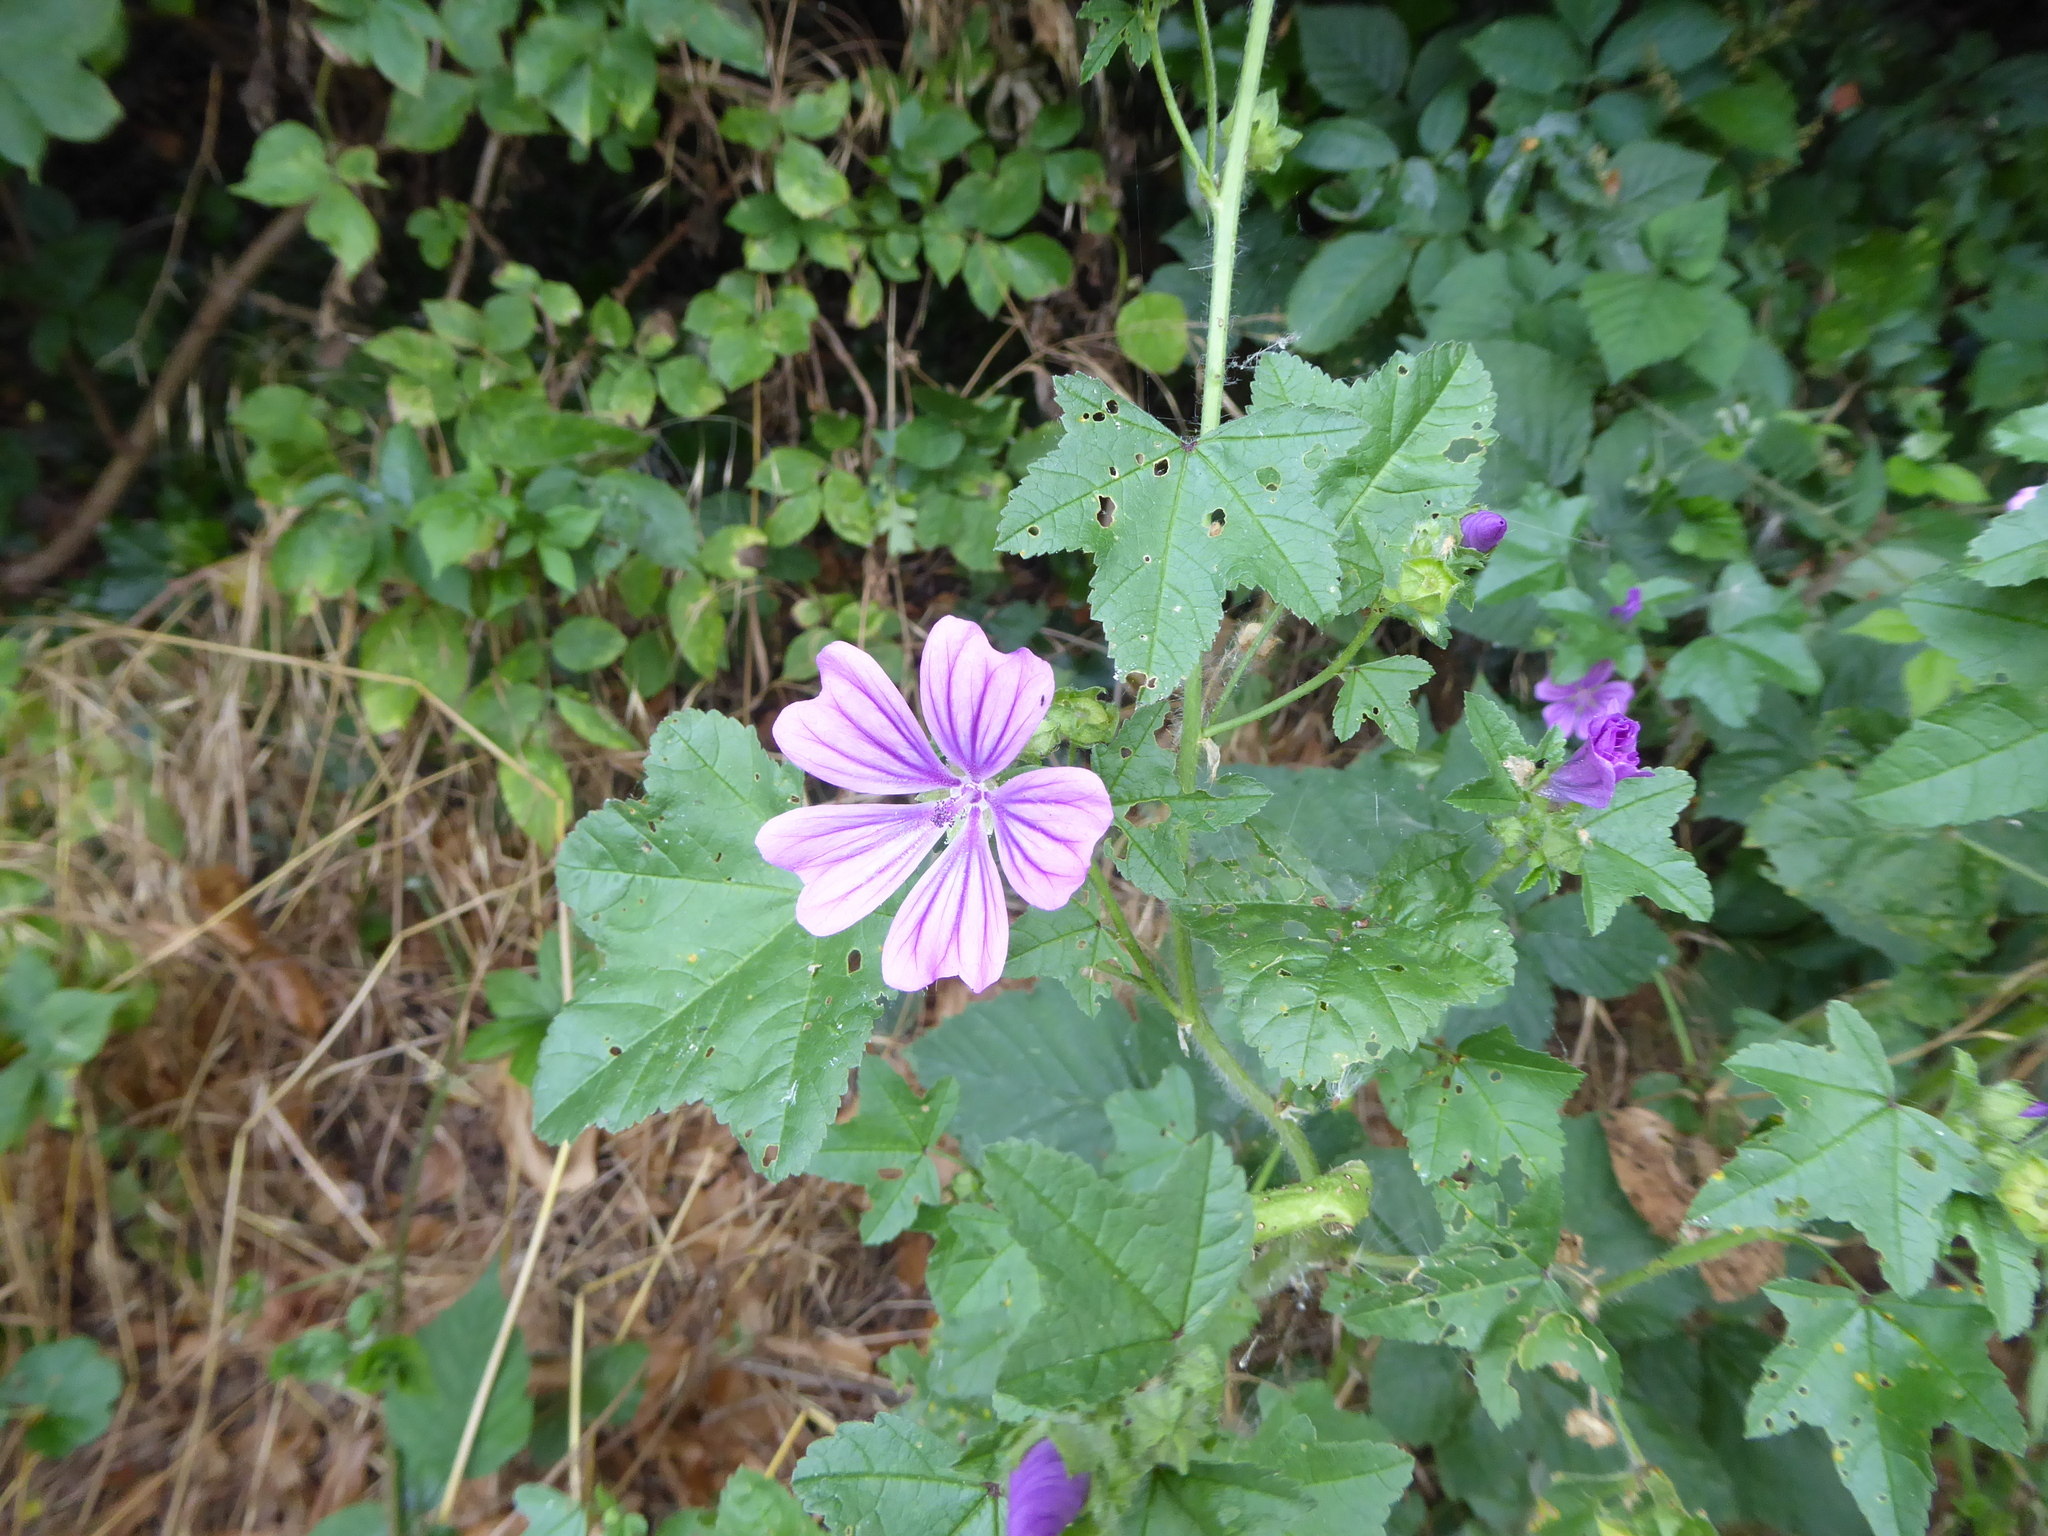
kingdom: Plantae
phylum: Tracheophyta
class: Magnoliopsida
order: Malvales
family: Malvaceae
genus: Malva
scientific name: Malva sylvestris
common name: Common mallow
